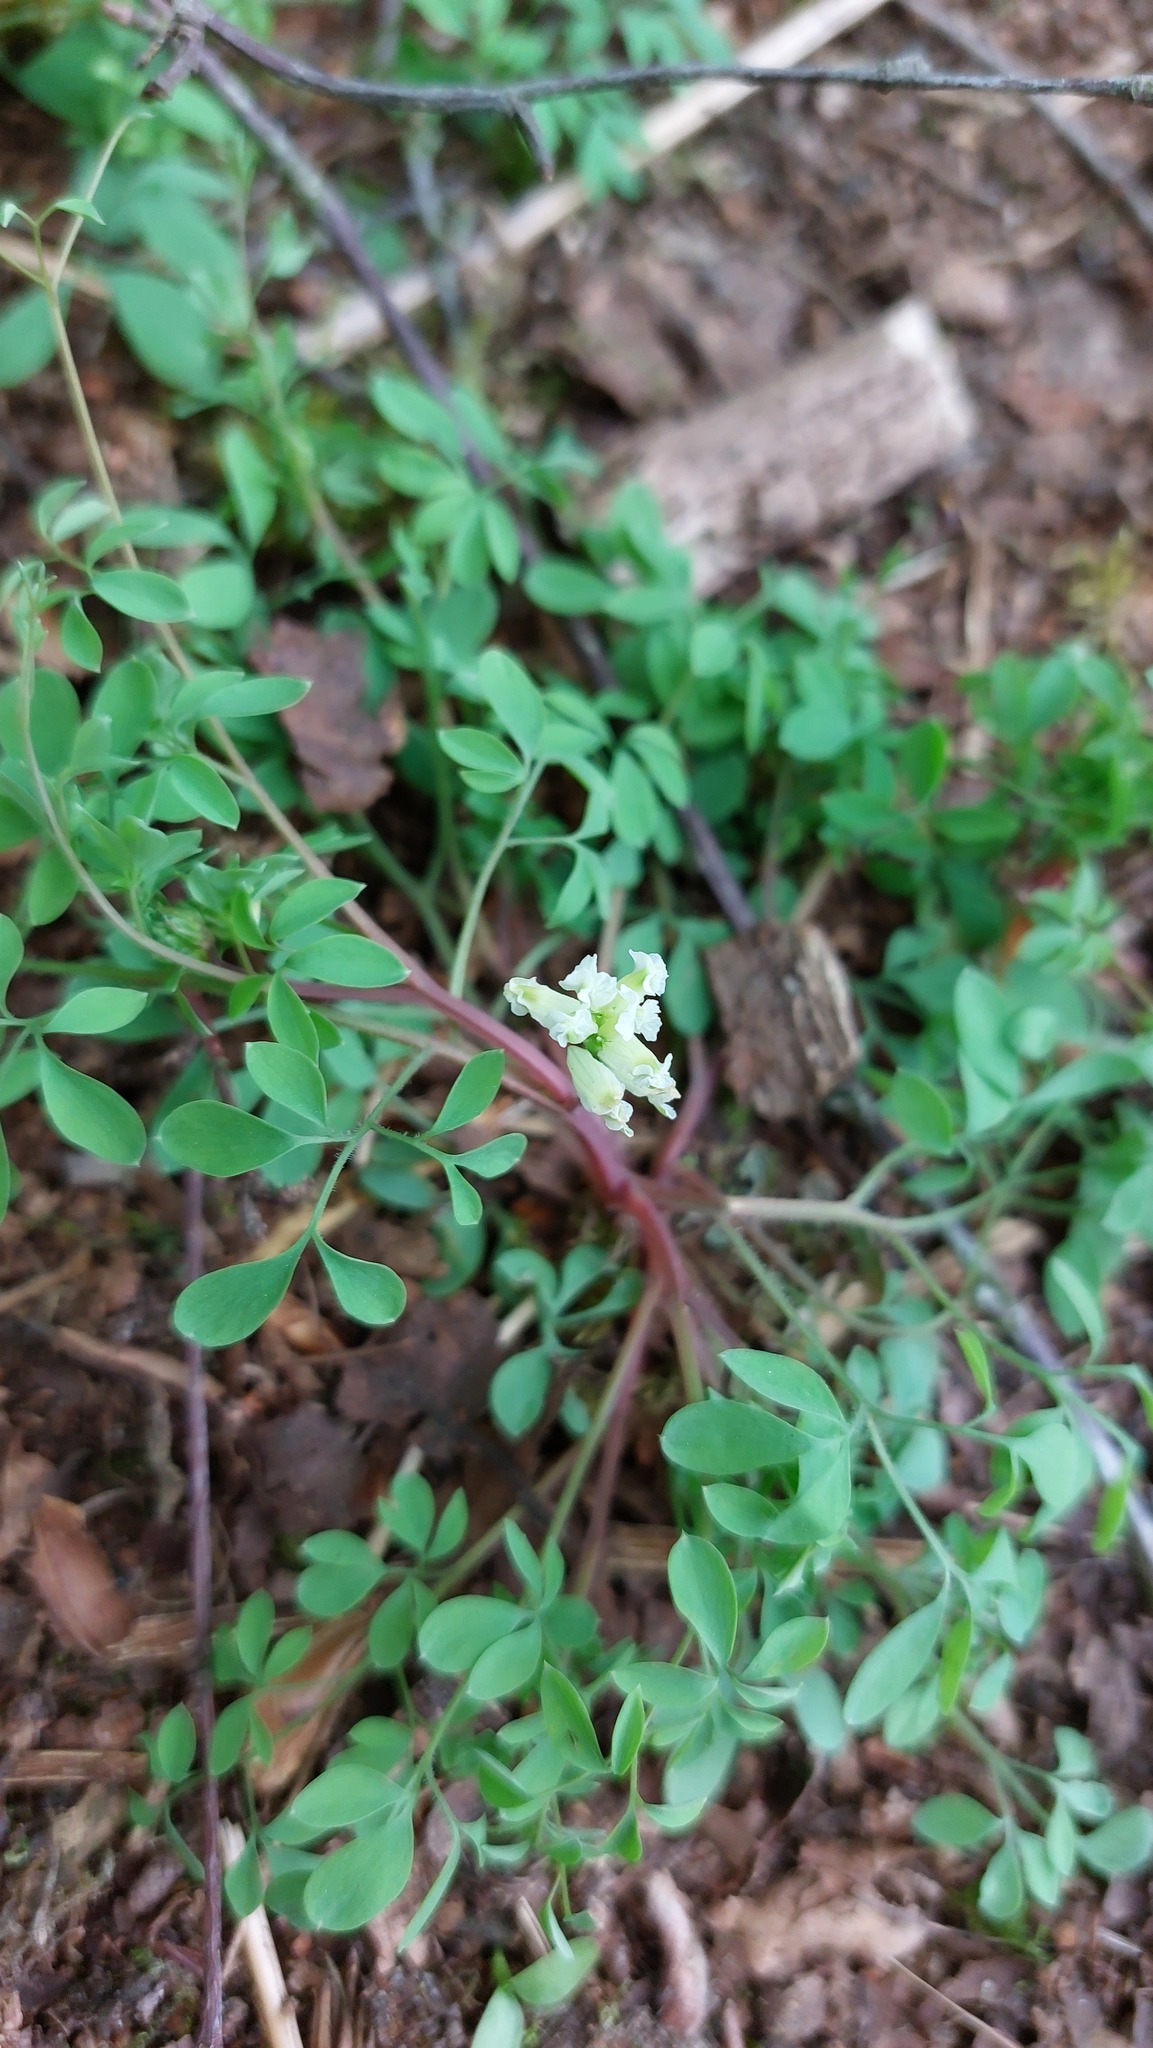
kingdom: Plantae
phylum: Tracheophyta
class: Magnoliopsida
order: Ranunculales
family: Papaveraceae
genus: Ceratocapnos
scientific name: Ceratocapnos claviculata
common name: Climbing corydalis
